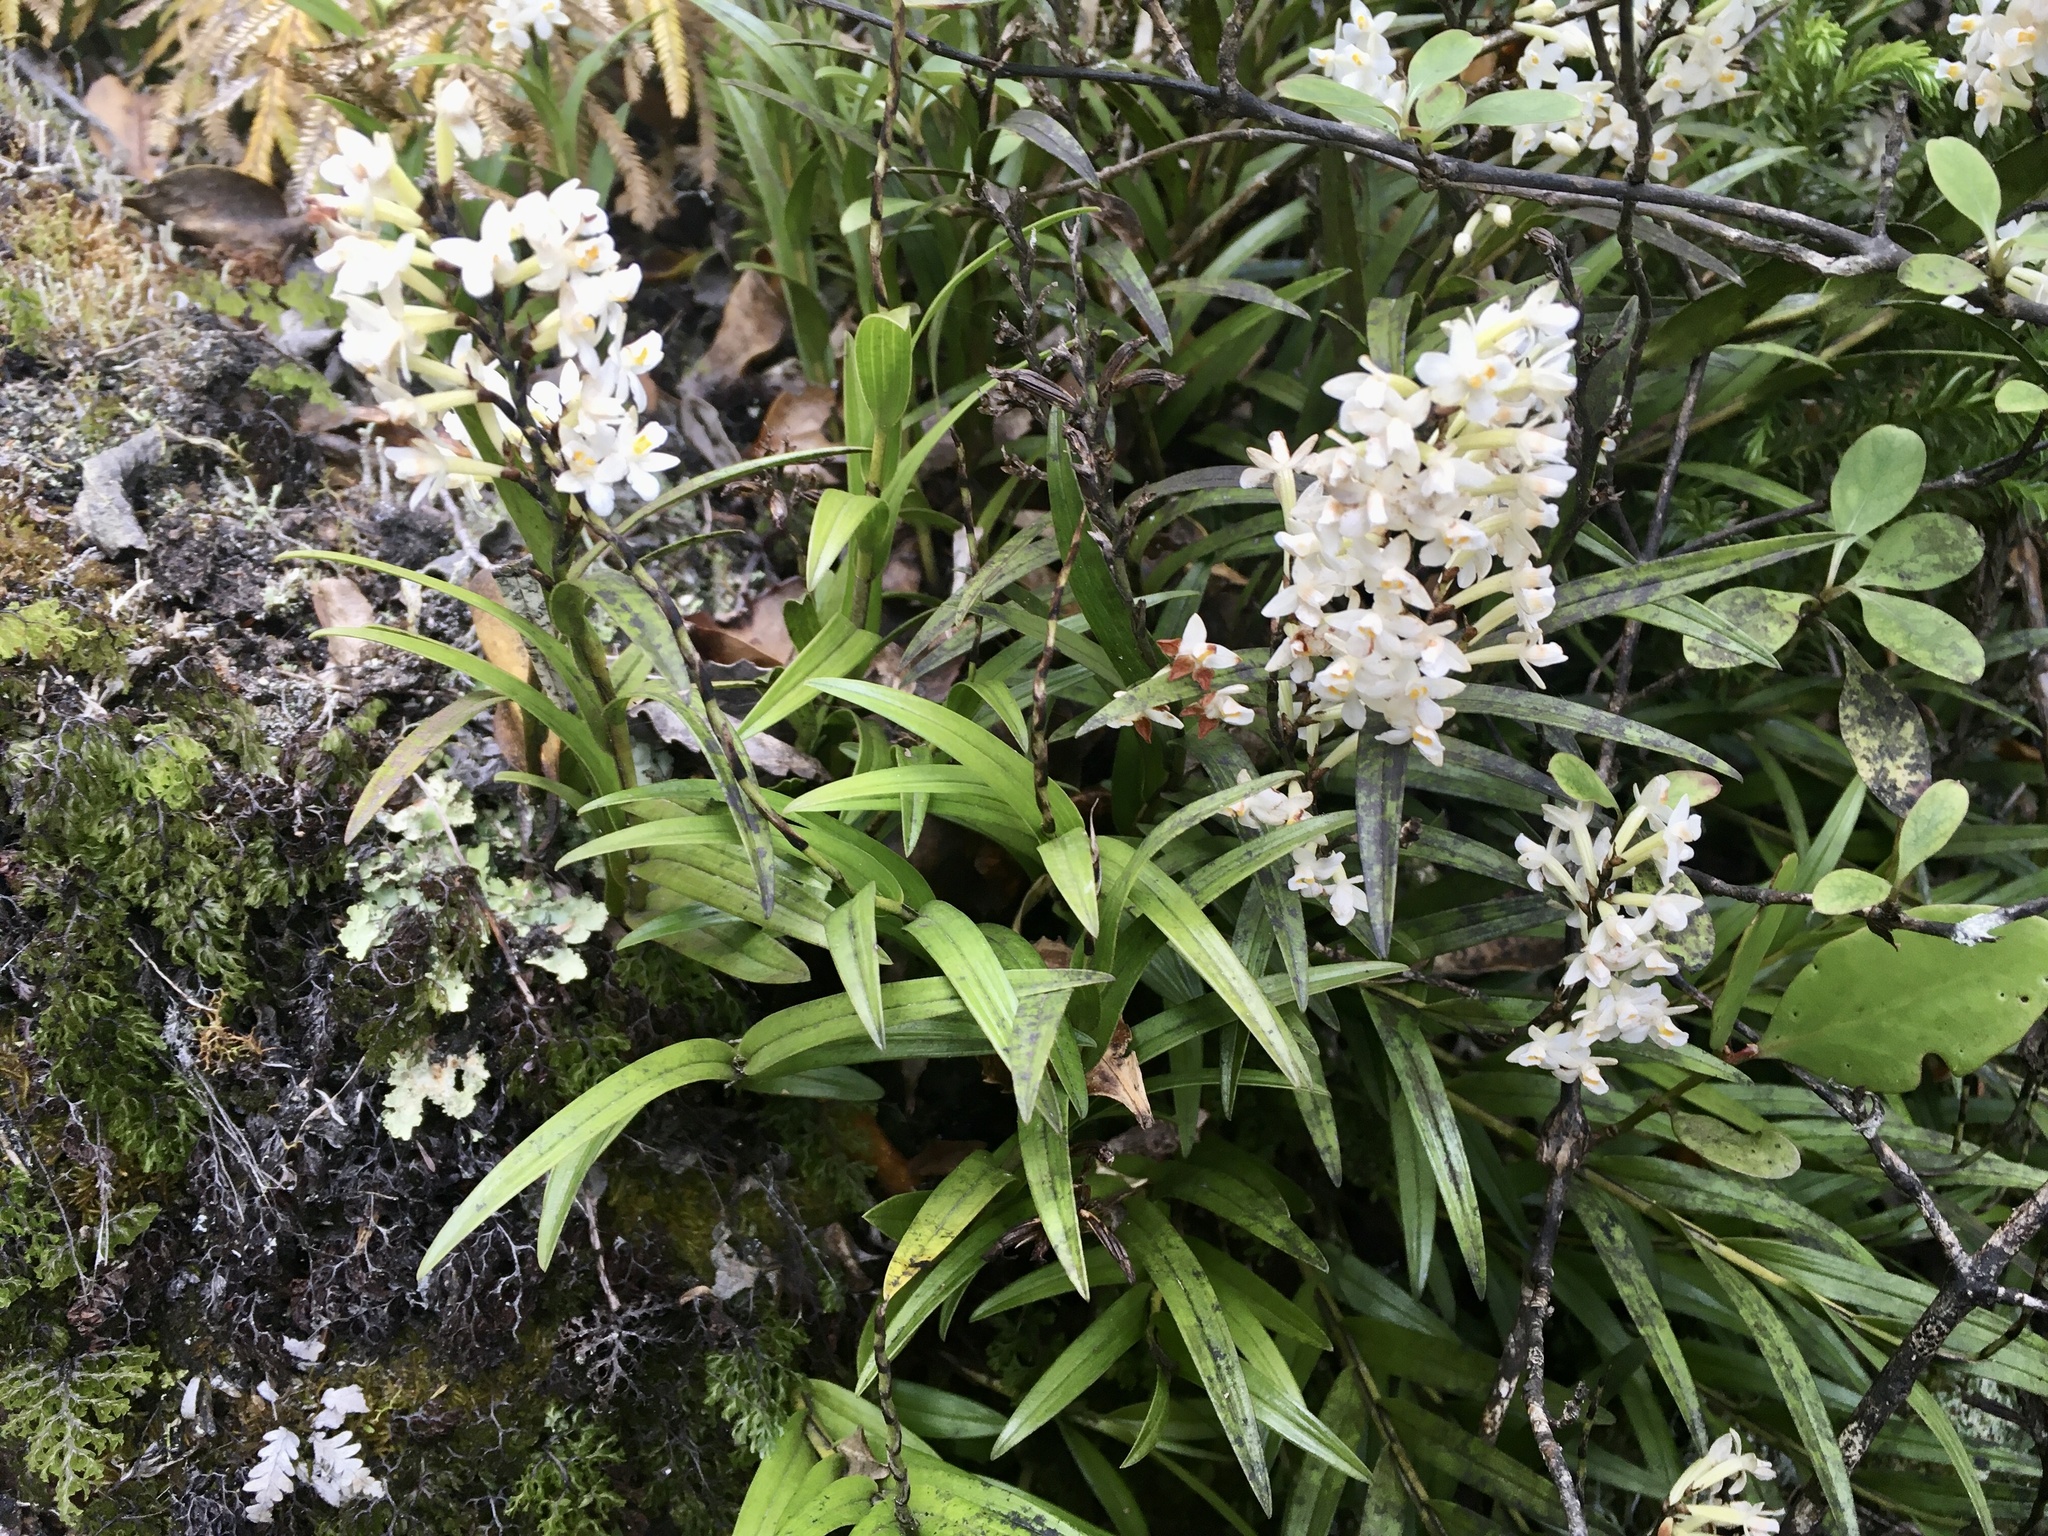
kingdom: Plantae
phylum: Tracheophyta
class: Liliopsida
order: Asparagales
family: Orchidaceae
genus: Earina
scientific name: Earina autumnalis
